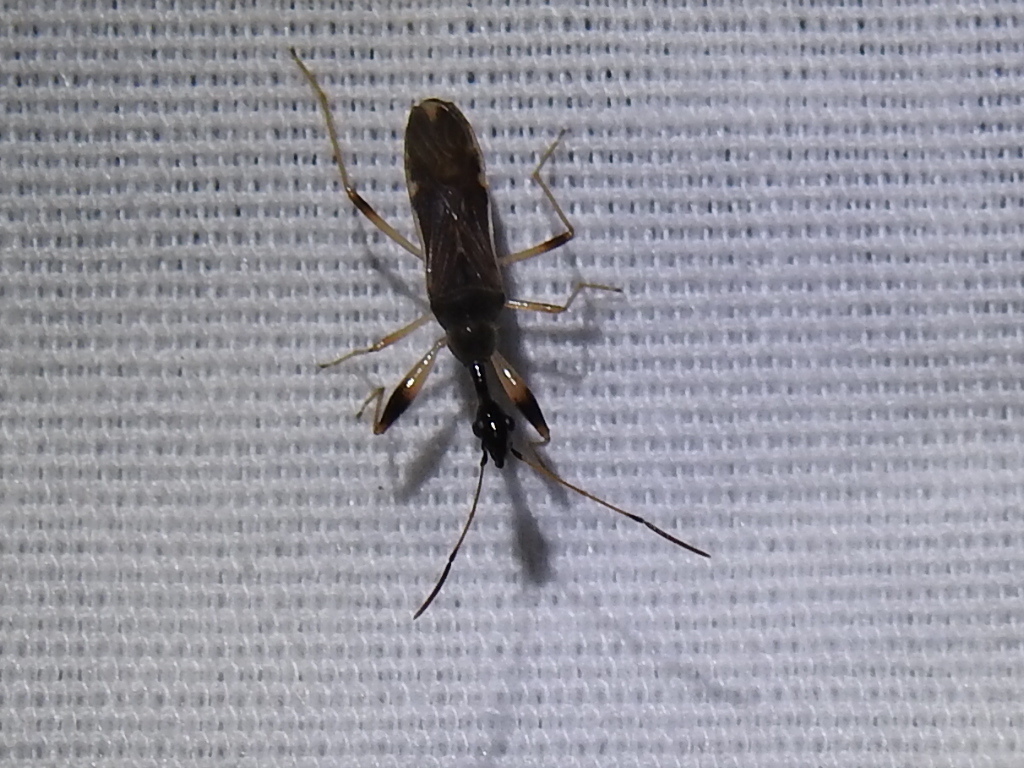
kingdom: Animalia
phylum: Arthropoda
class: Insecta
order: Hemiptera
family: Rhyparochromidae
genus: Myodocha
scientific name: Myodocha serripes
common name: Long-necked seed bug
